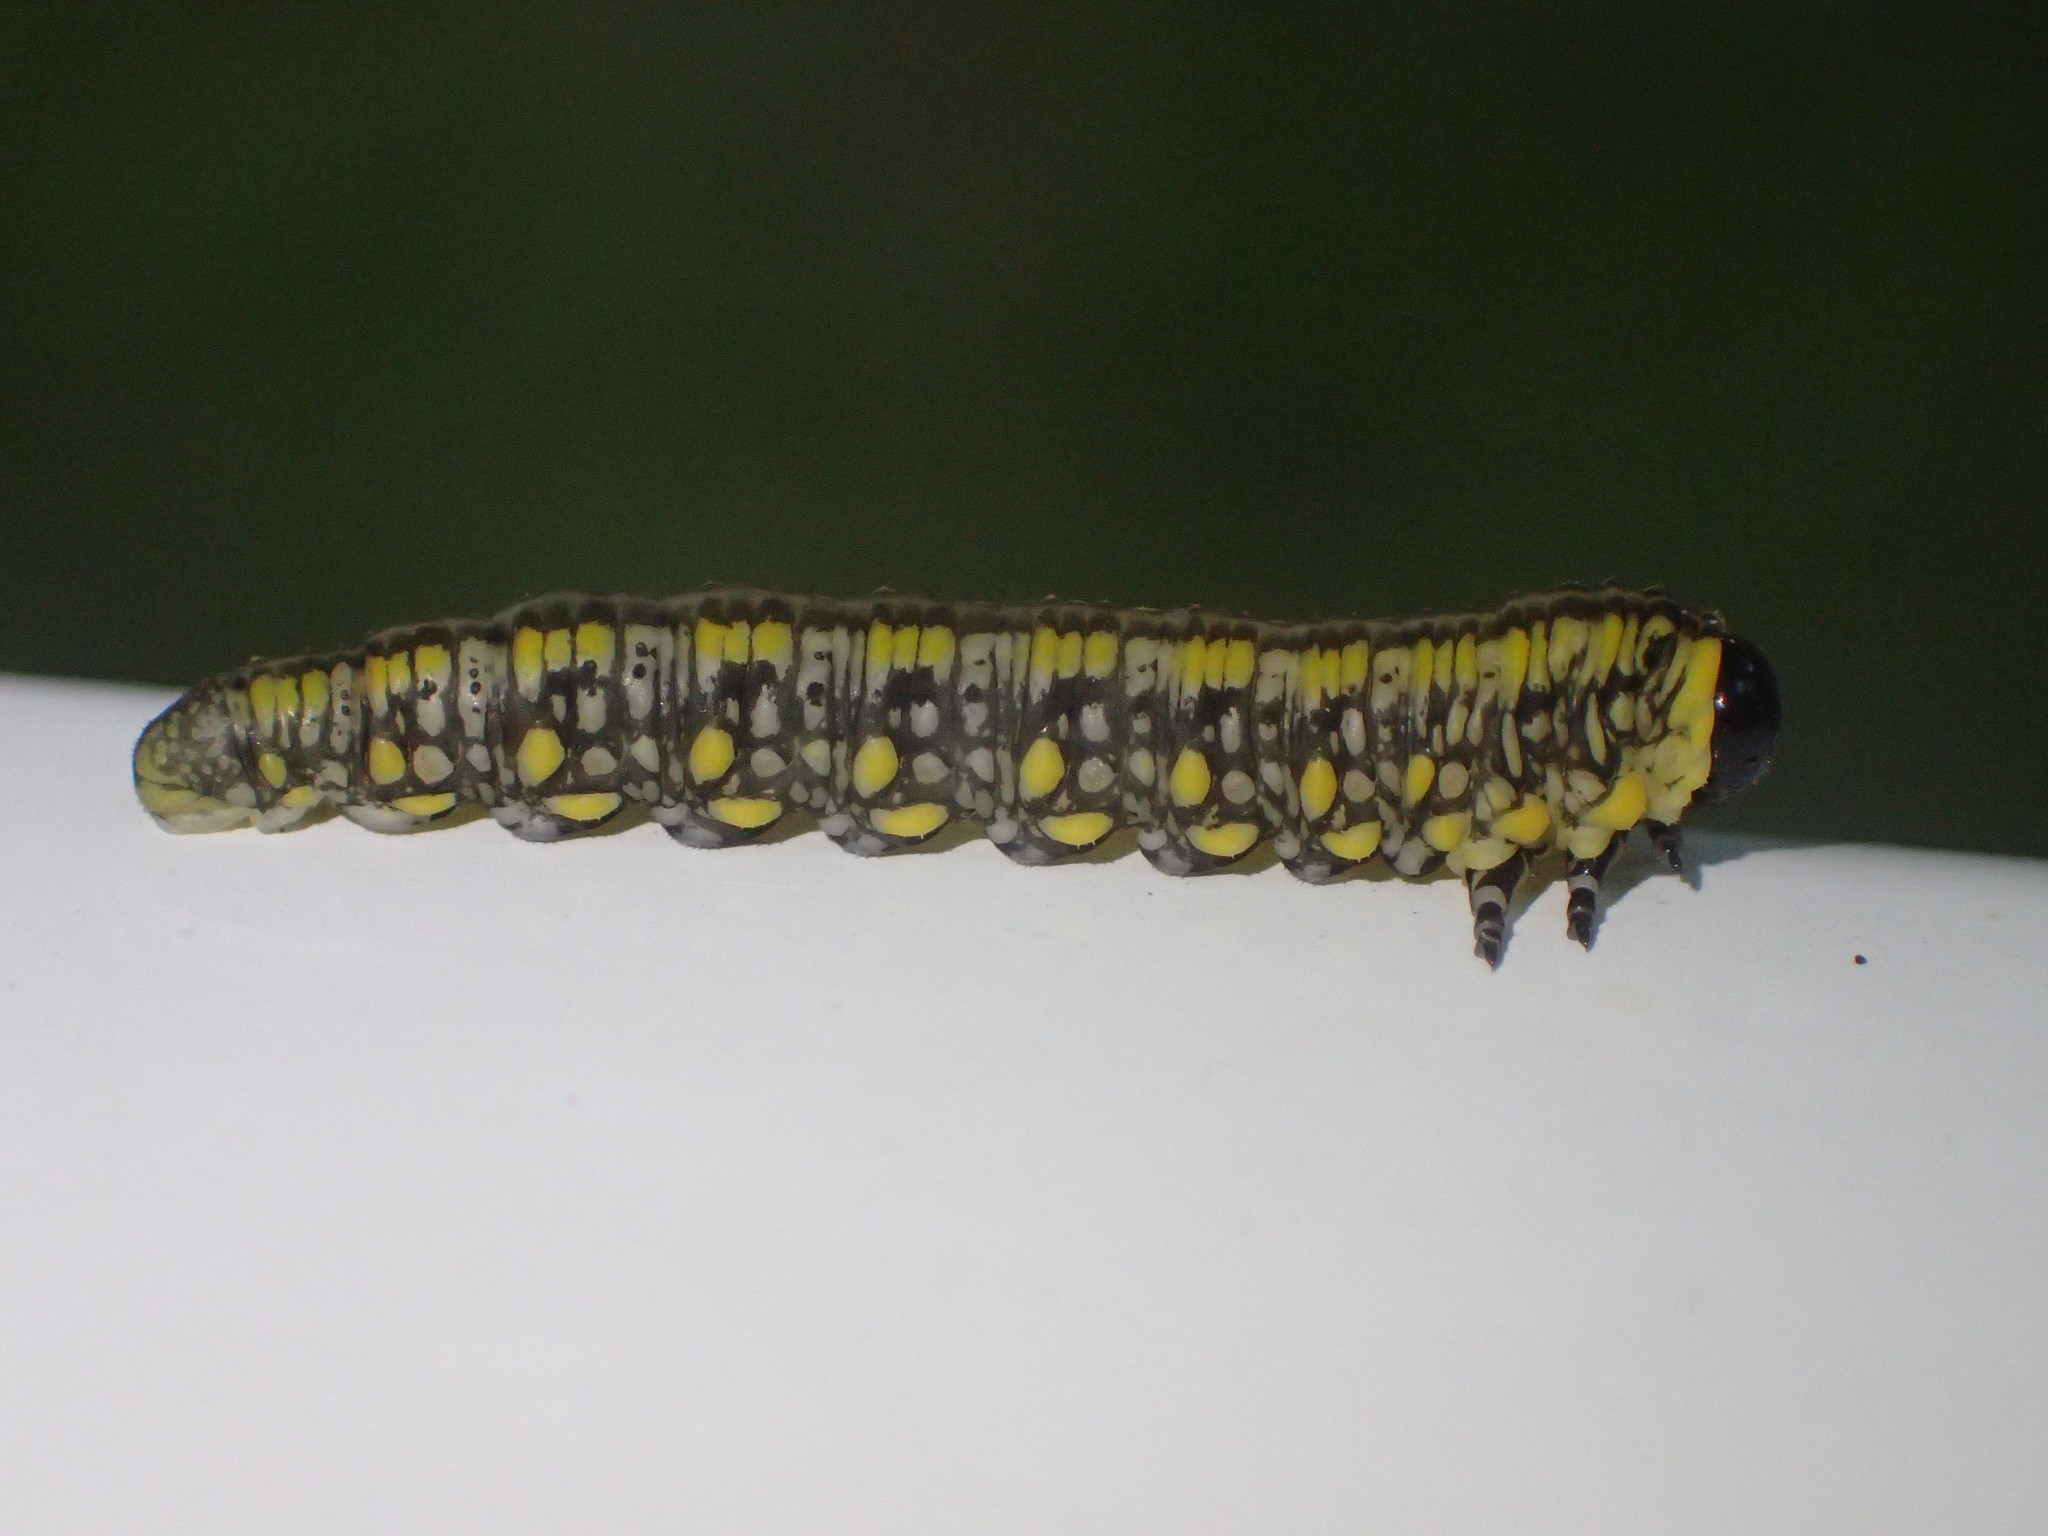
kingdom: Animalia
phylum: Arthropoda
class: Insecta
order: Hymenoptera
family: Diprionidae
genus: Diprion
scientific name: Diprion similis
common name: Pine sawfly
